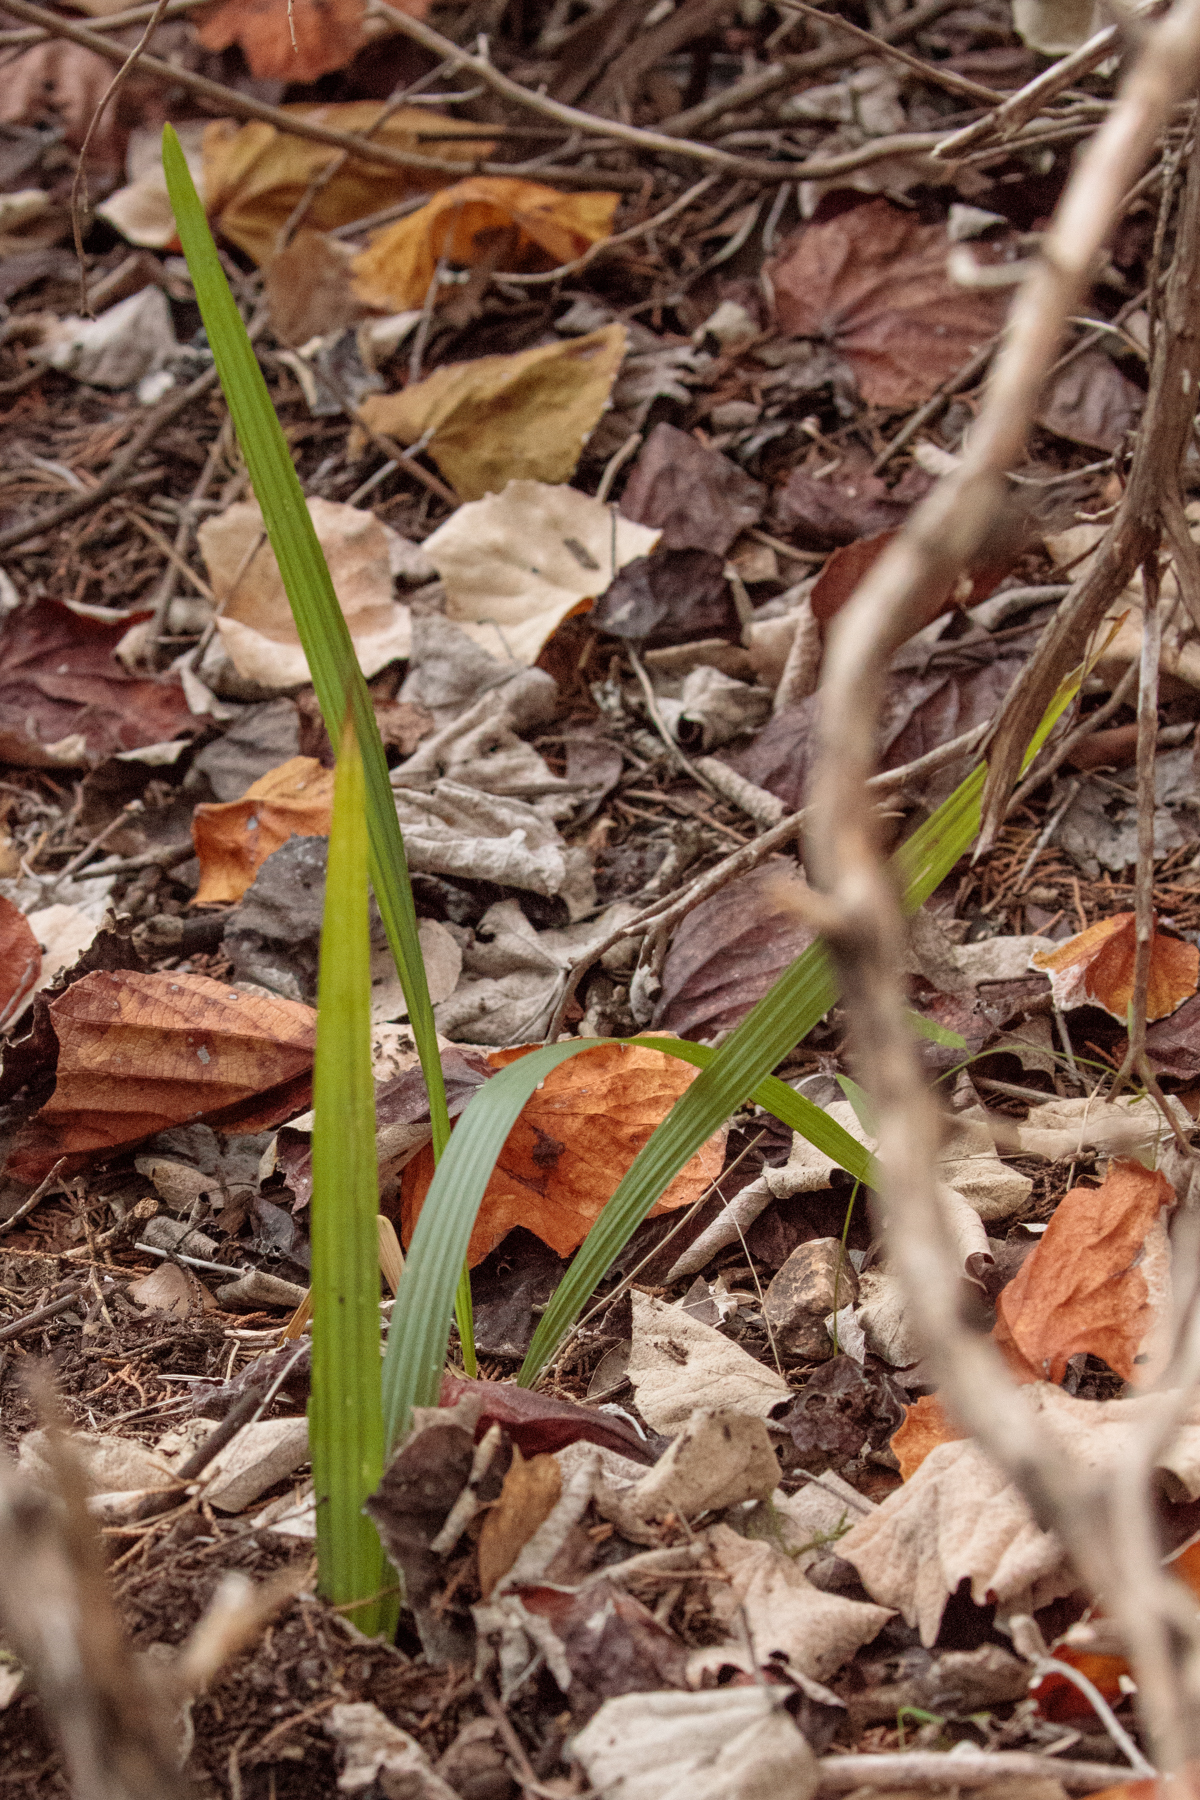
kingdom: Plantae
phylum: Tracheophyta
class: Liliopsida
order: Arecales
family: Arecaceae
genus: Sabal
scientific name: Sabal minor
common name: Dwarf palmetto
